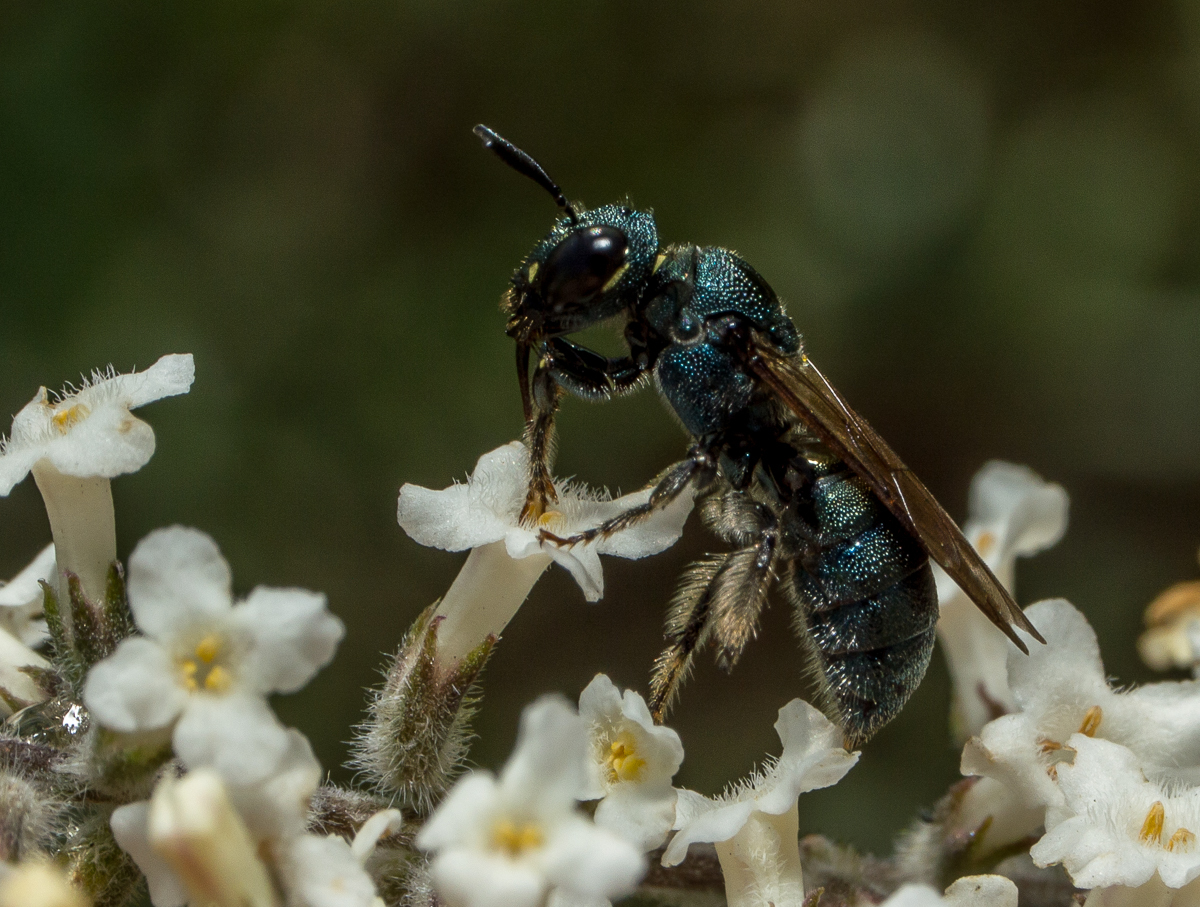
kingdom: Animalia
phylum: Arthropoda
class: Insecta
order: Hymenoptera
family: Apidae
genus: Ceratina
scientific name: Ceratina
